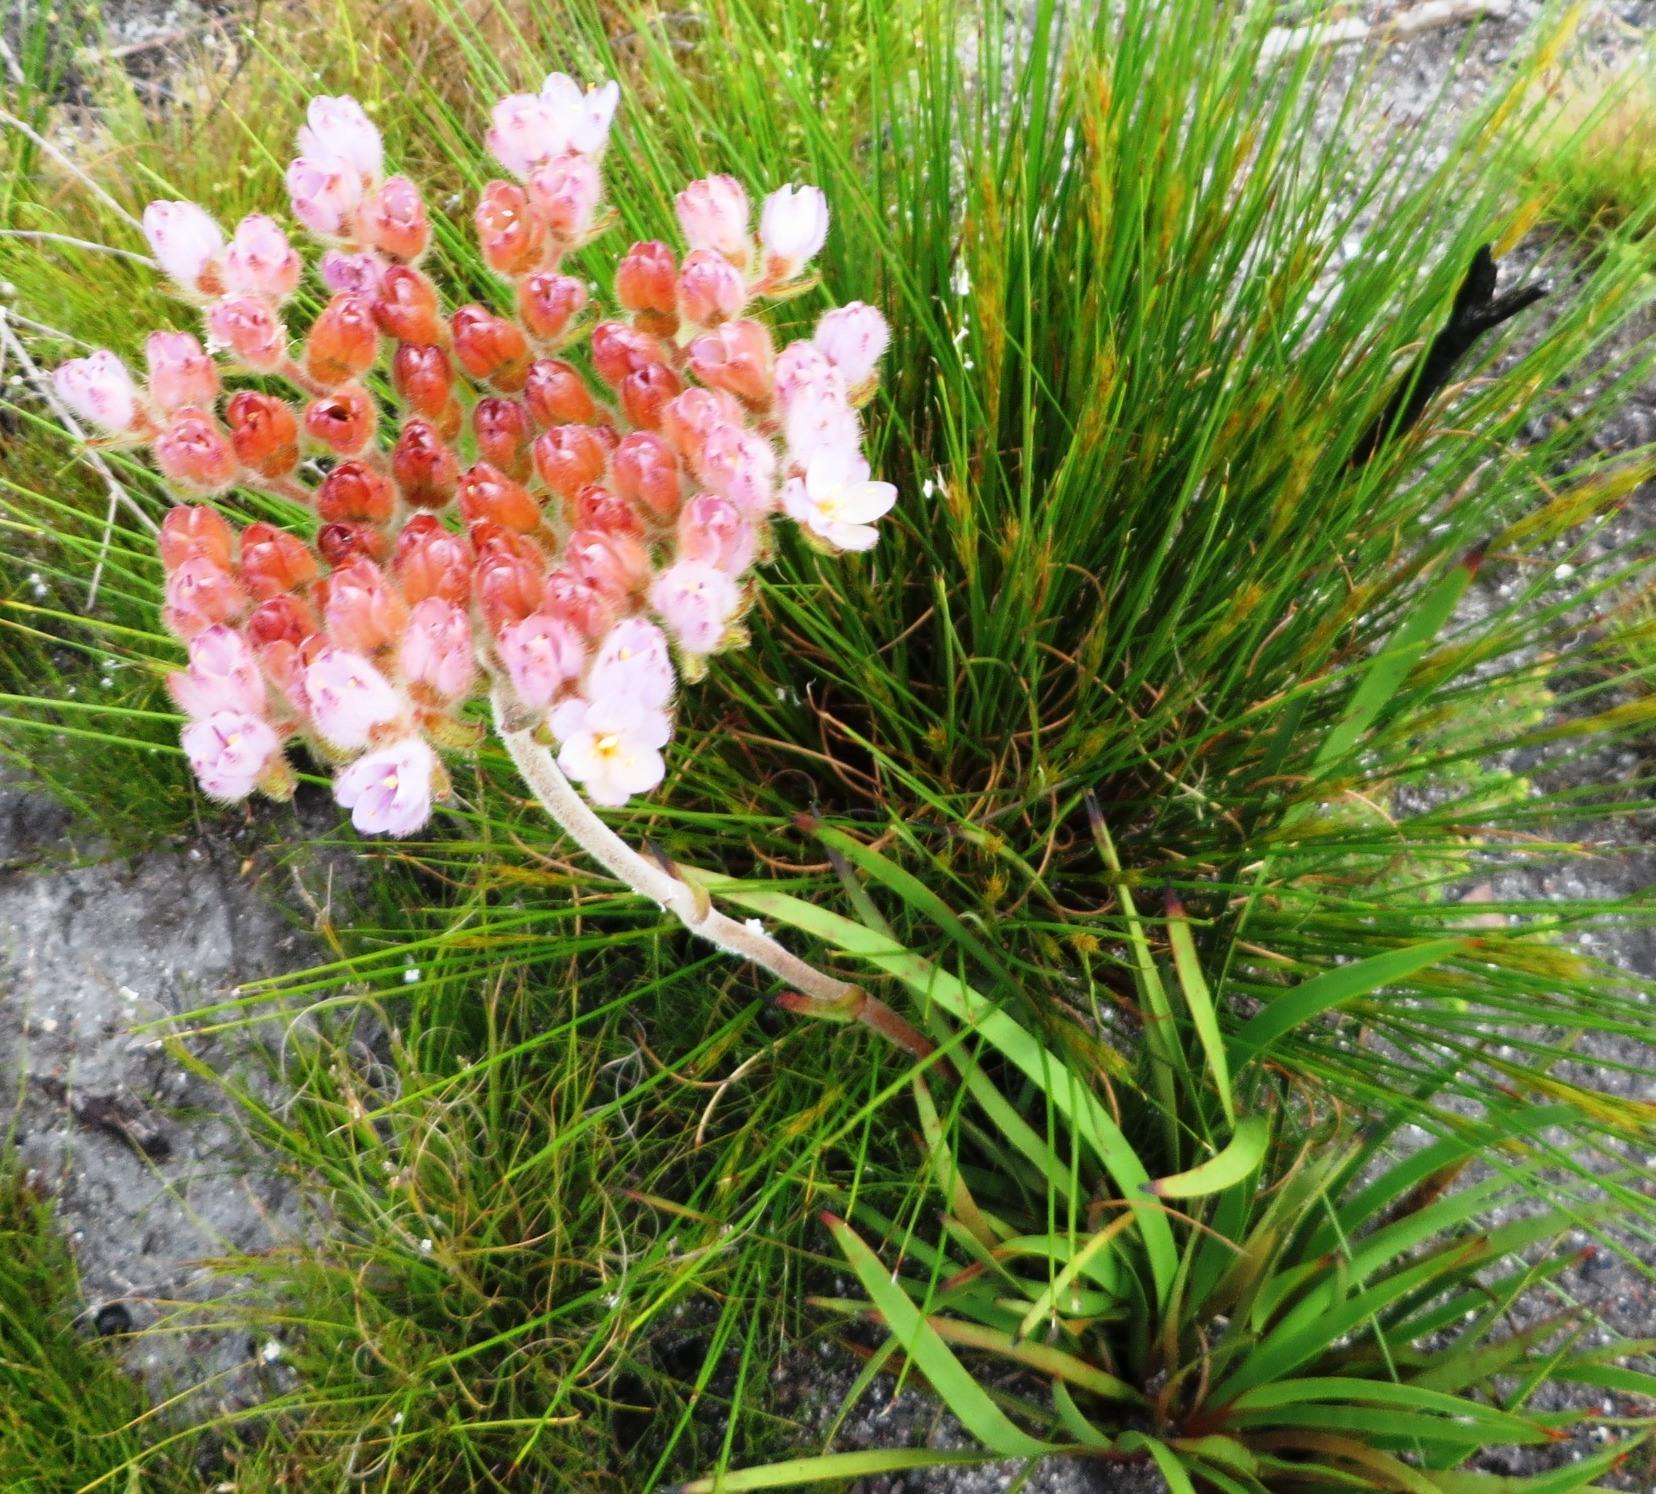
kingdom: Plantae
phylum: Tracheophyta
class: Liliopsida
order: Commelinales
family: Haemodoraceae
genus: Dilatris
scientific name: Dilatris corymbosa
